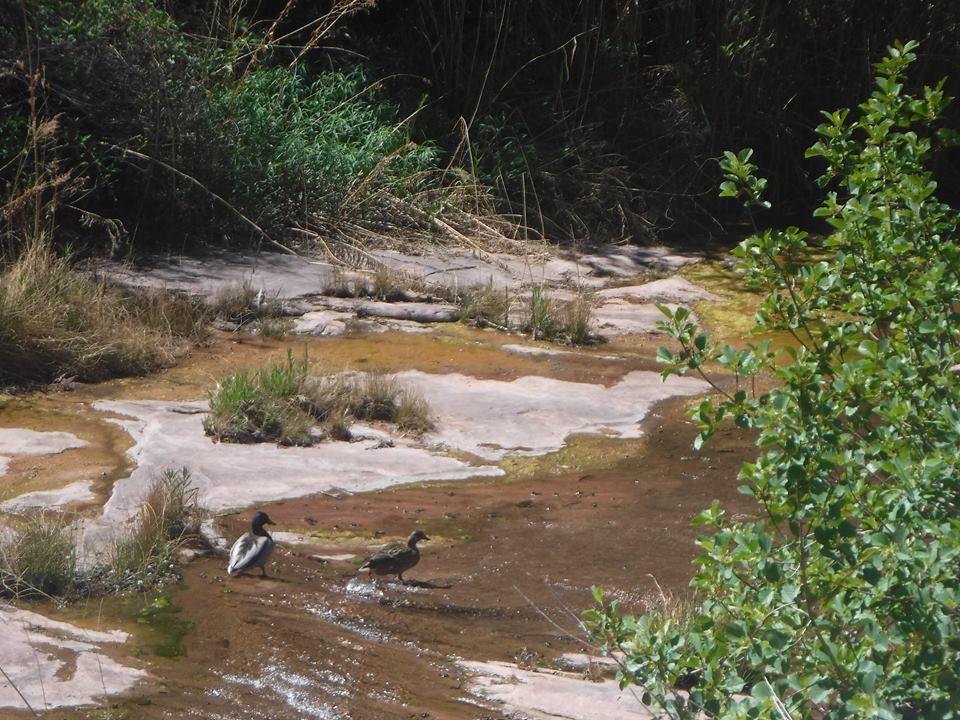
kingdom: Animalia
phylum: Chordata
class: Aves
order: Anseriformes
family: Anatidae
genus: Anas
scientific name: Anas platyrhynchos
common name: Mallard
